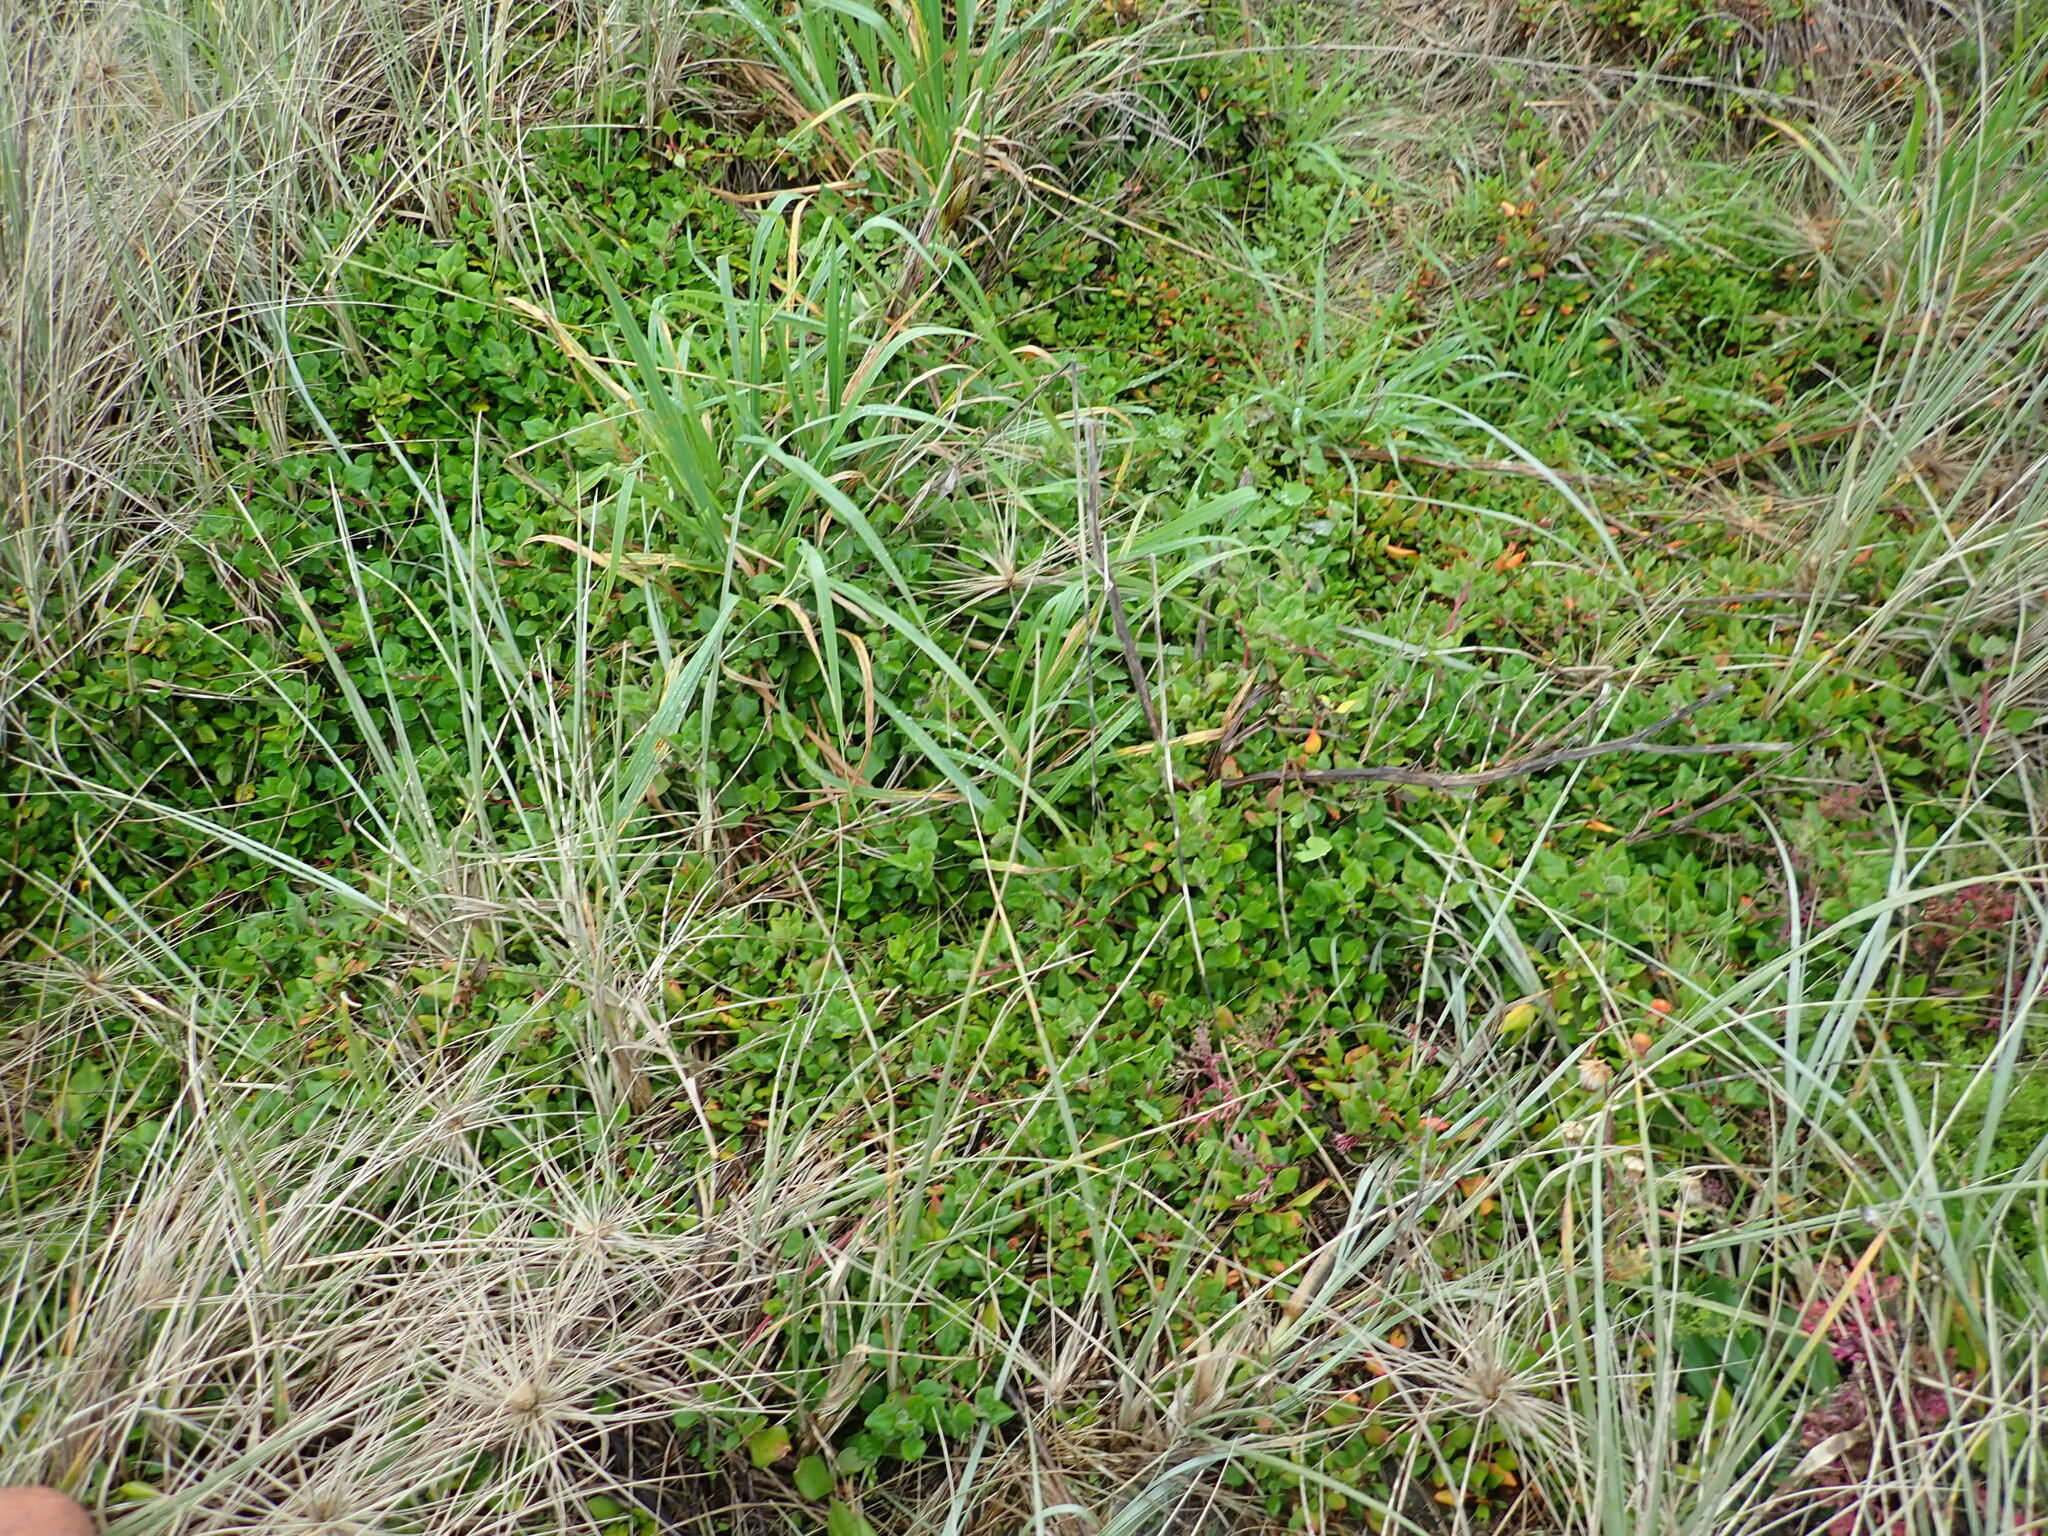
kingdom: Plantae
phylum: Tracheophyta
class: Magnoliopsida
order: Caryophyllales
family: Aizoaceae
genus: Tetragonia
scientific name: Tetragonia implexicoma
